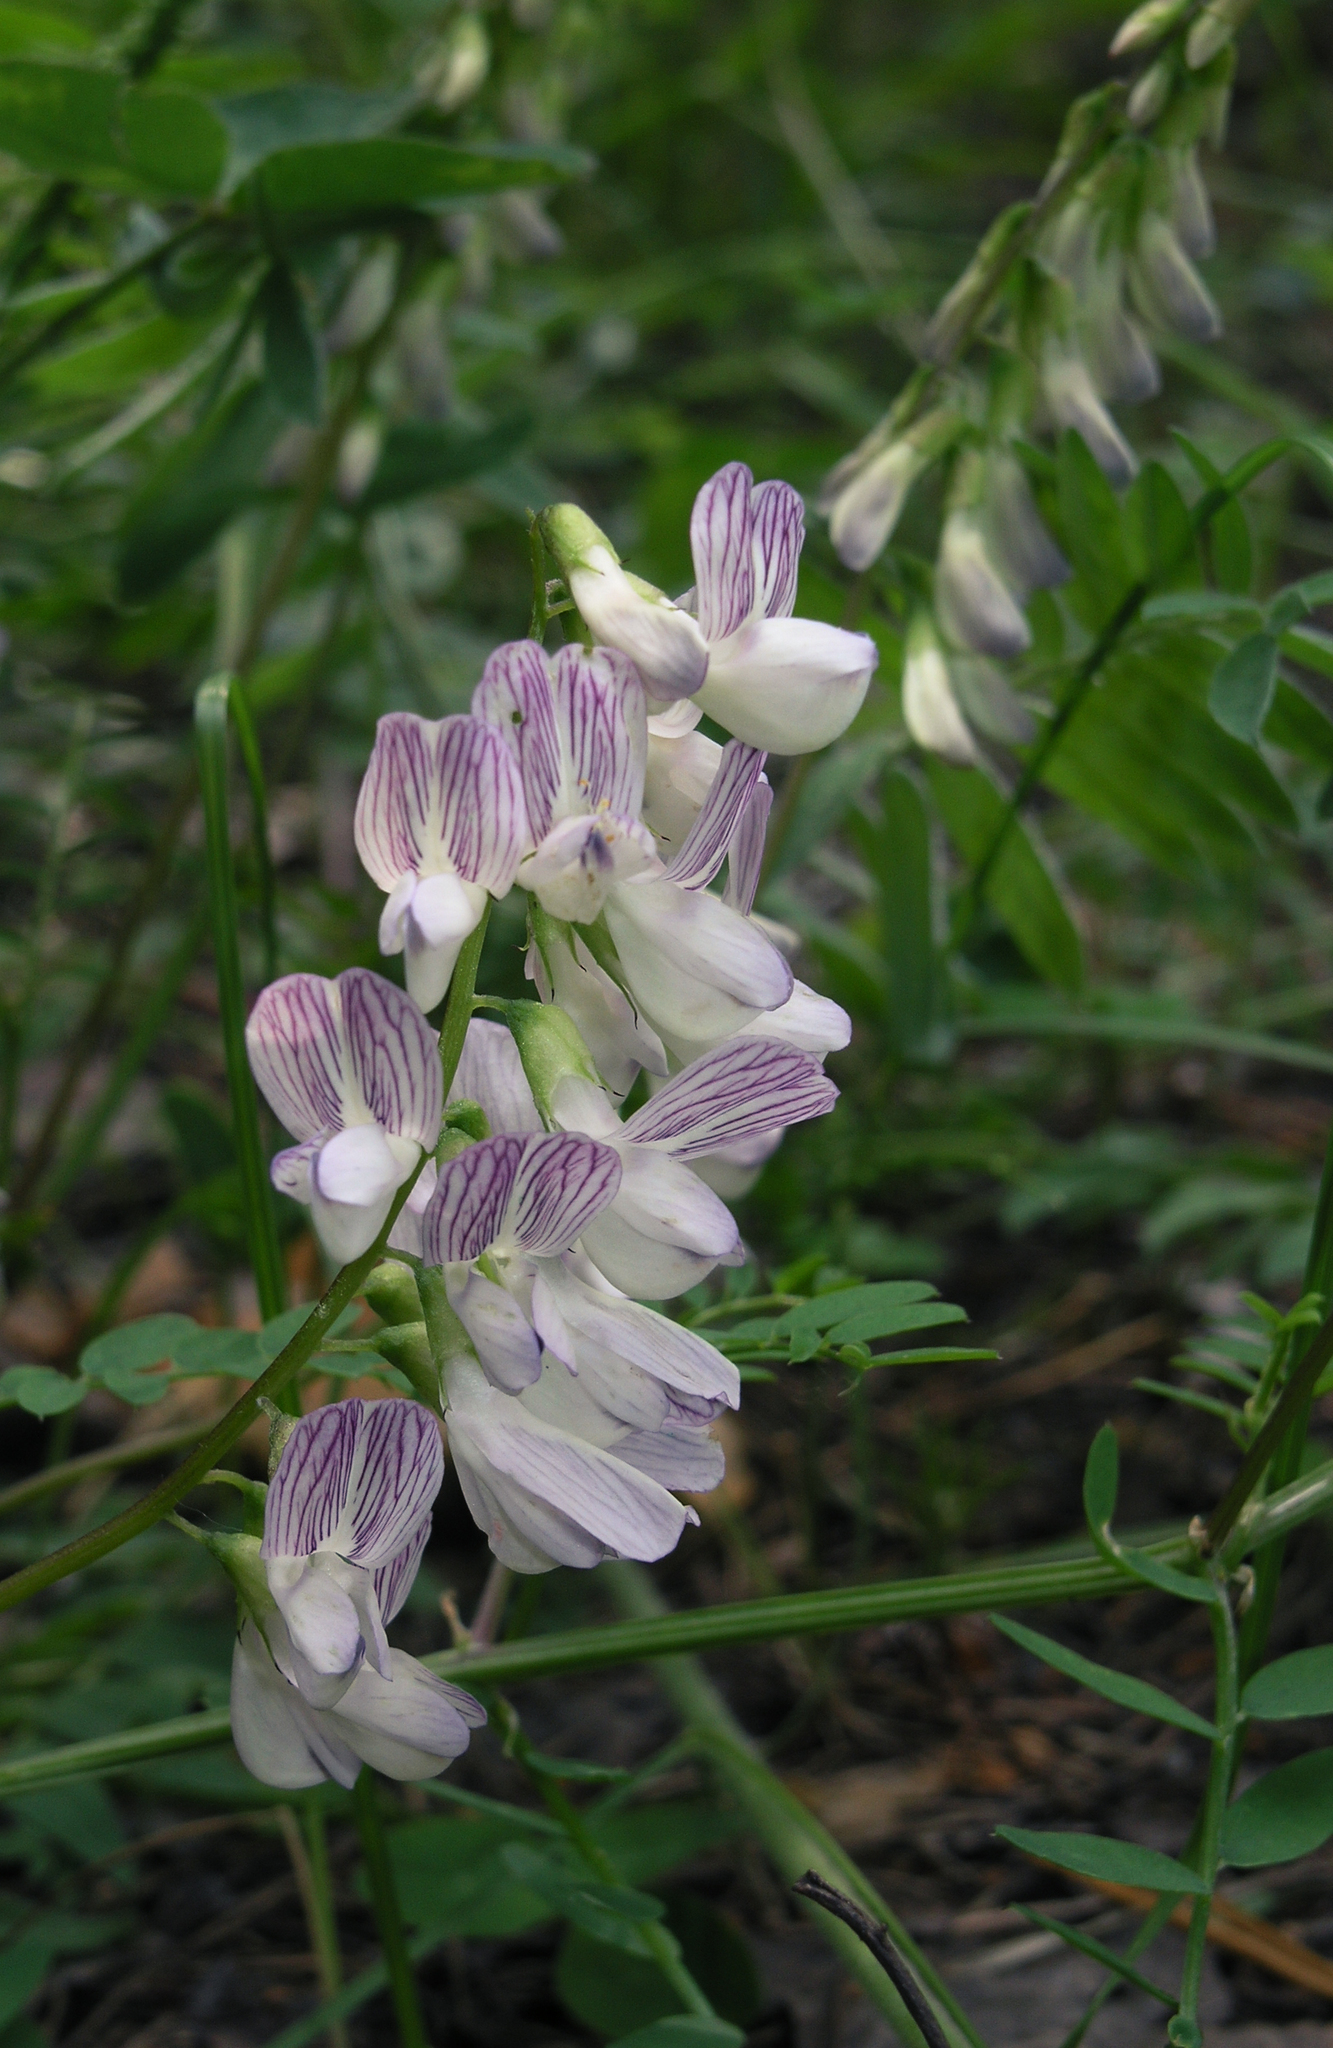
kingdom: Plantae
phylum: Tracheophyta
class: Magnoliopsida
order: Fabales
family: Fabaceae
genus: Vicia
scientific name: Vicia sylvatica
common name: Wood vetch
